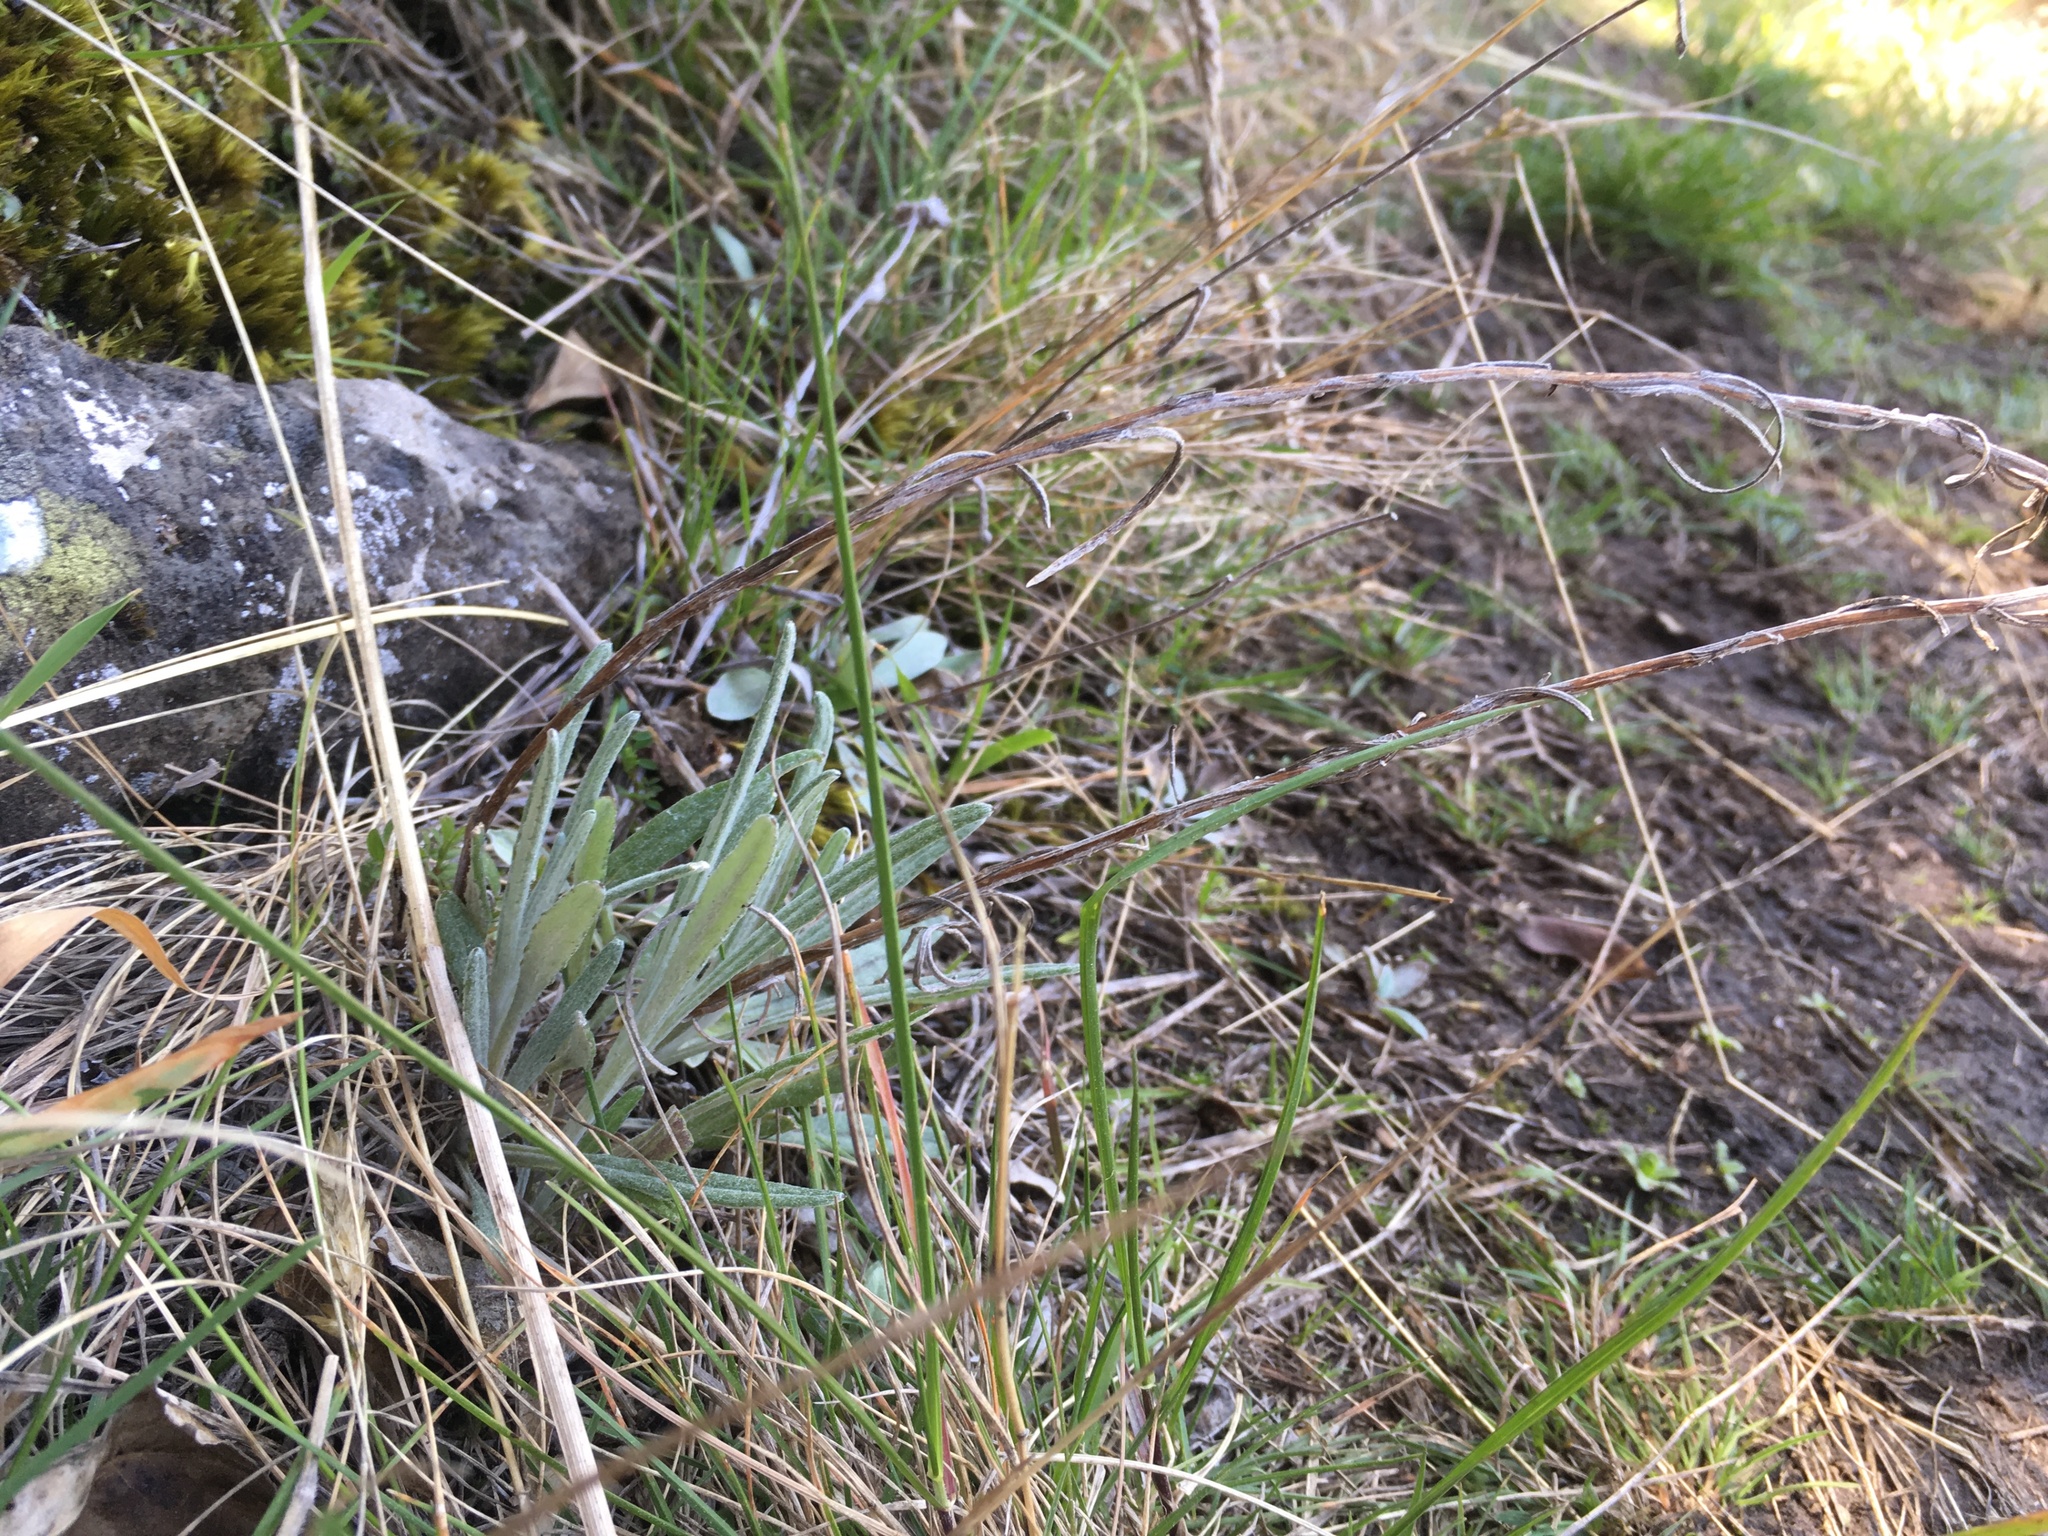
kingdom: Plantae
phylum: Tracheophyta
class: Magnoliopsida
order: Asterales
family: Asteraceae
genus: Senecio
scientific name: Senecio quadridentatus
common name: Cotton fireweed
